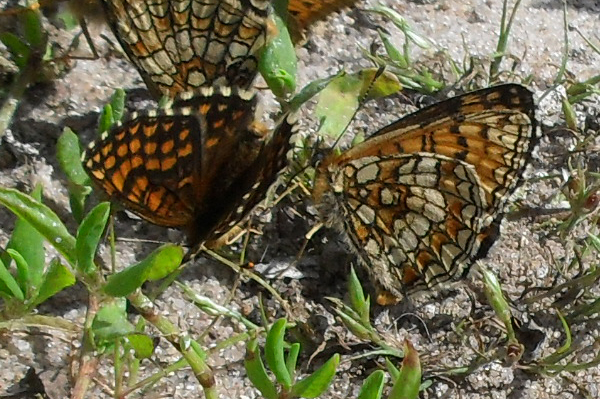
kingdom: Animalia
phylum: Arthropoda
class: Insecta
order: Lepidoptera
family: Nymphalidae
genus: Melitaea
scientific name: Melitaea athalia
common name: Heath fritillary
